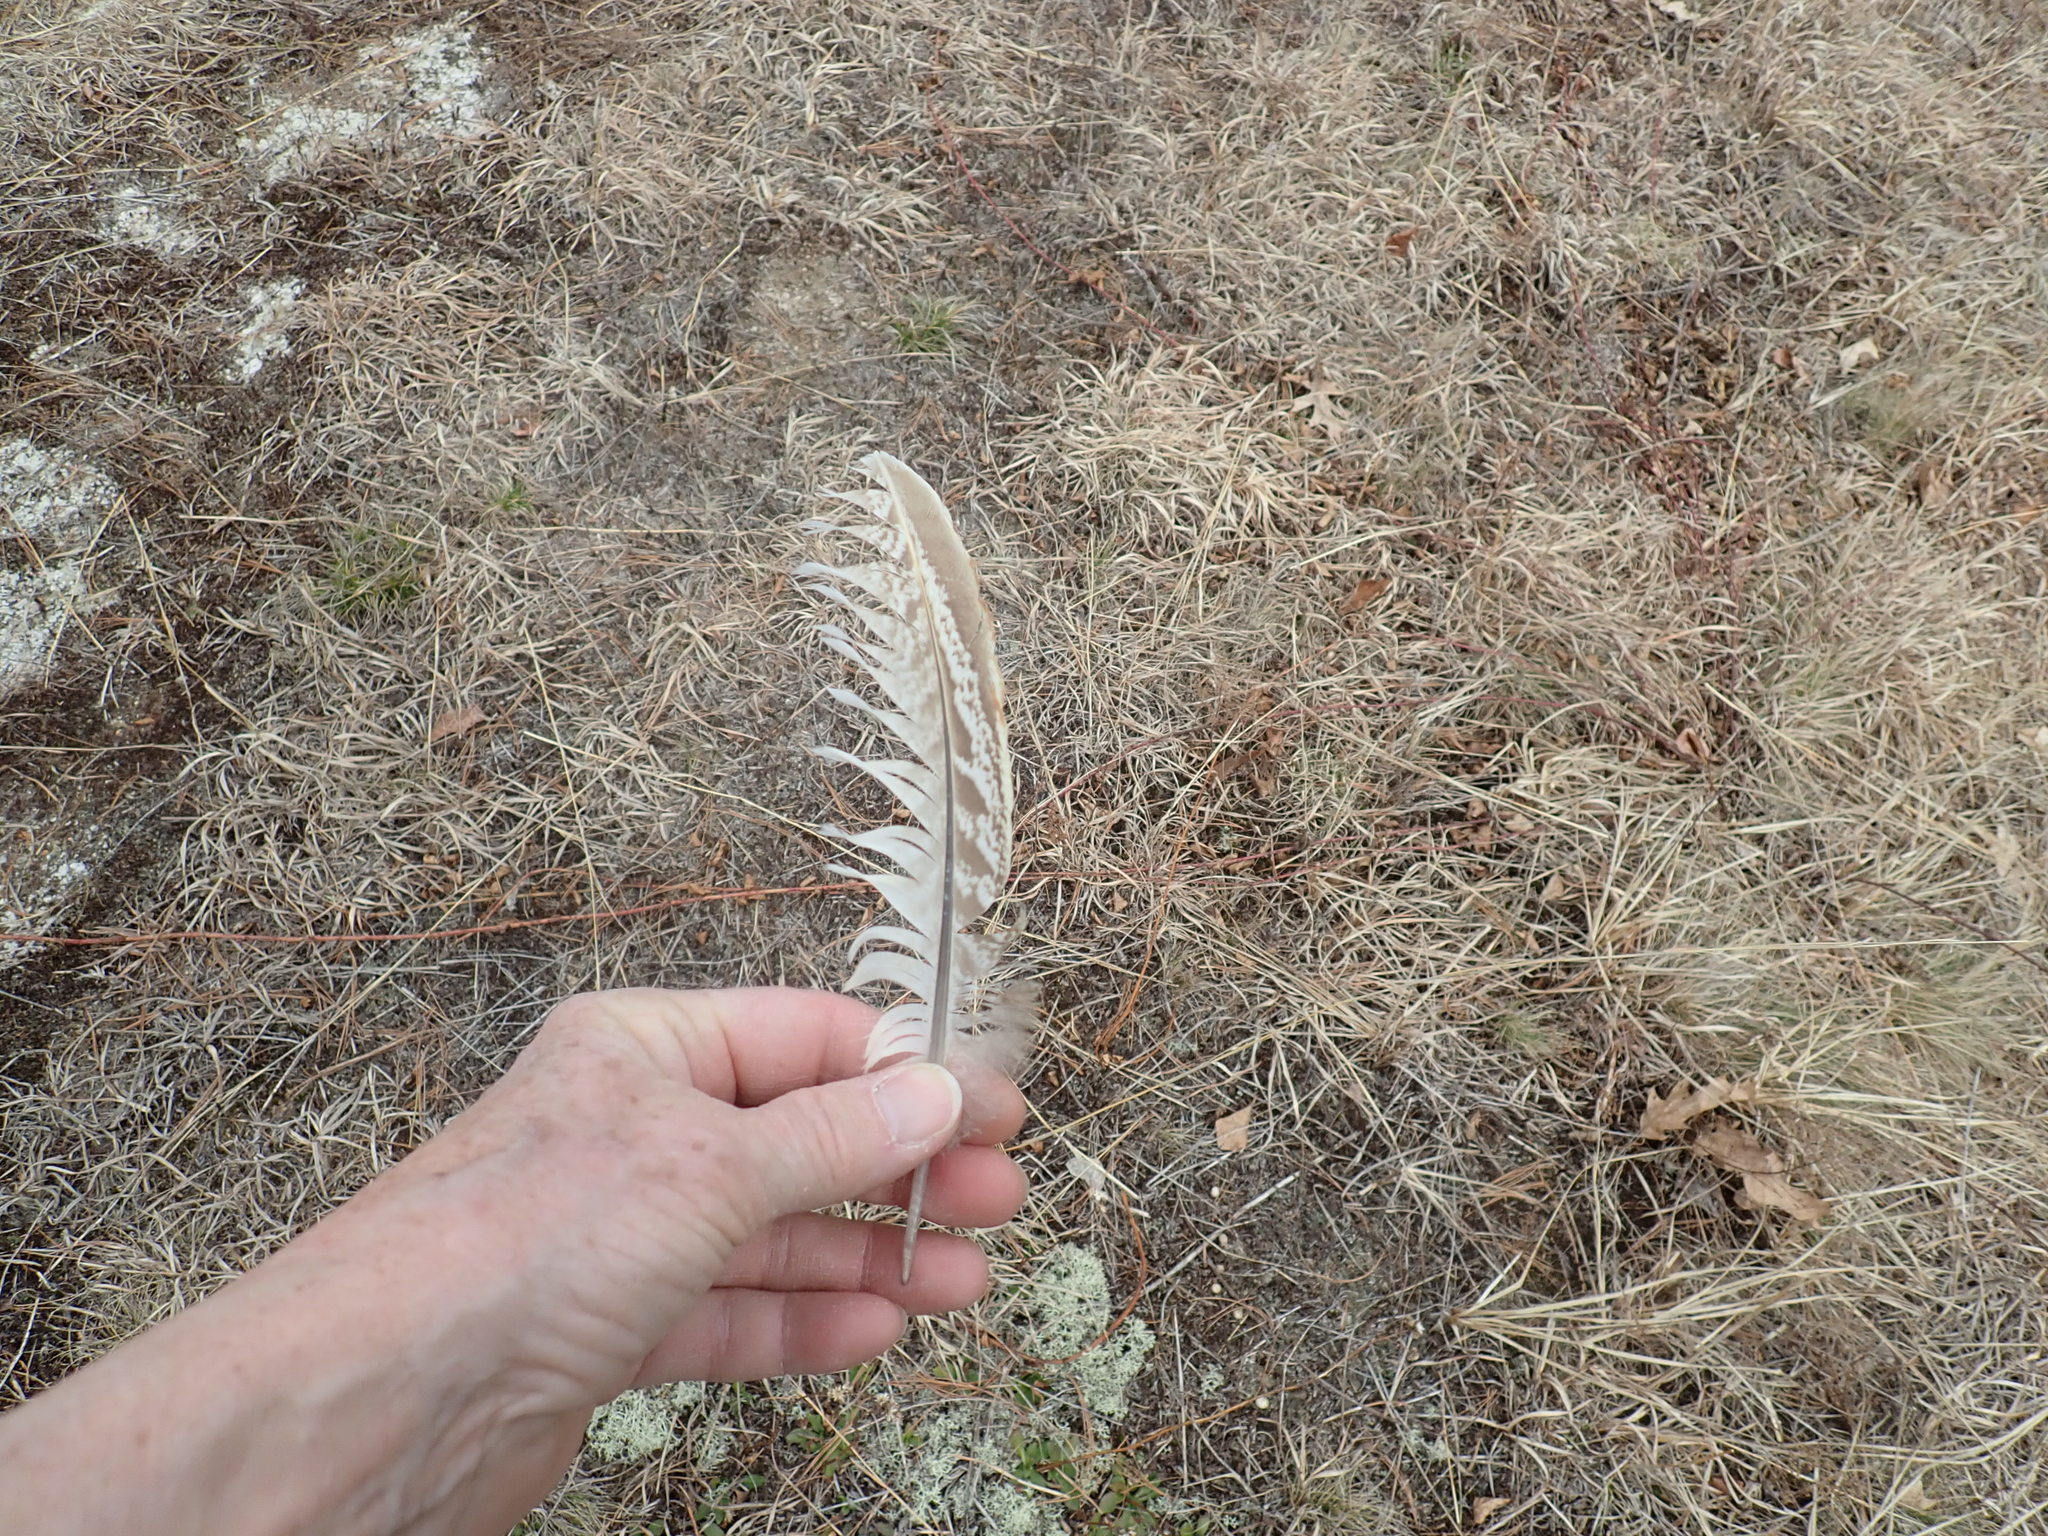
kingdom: Animalia
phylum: Chordata
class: Aves
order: Galliformes
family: Phasianidae
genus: Phasianus
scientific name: Phasianus colchicus
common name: Common pheasant
